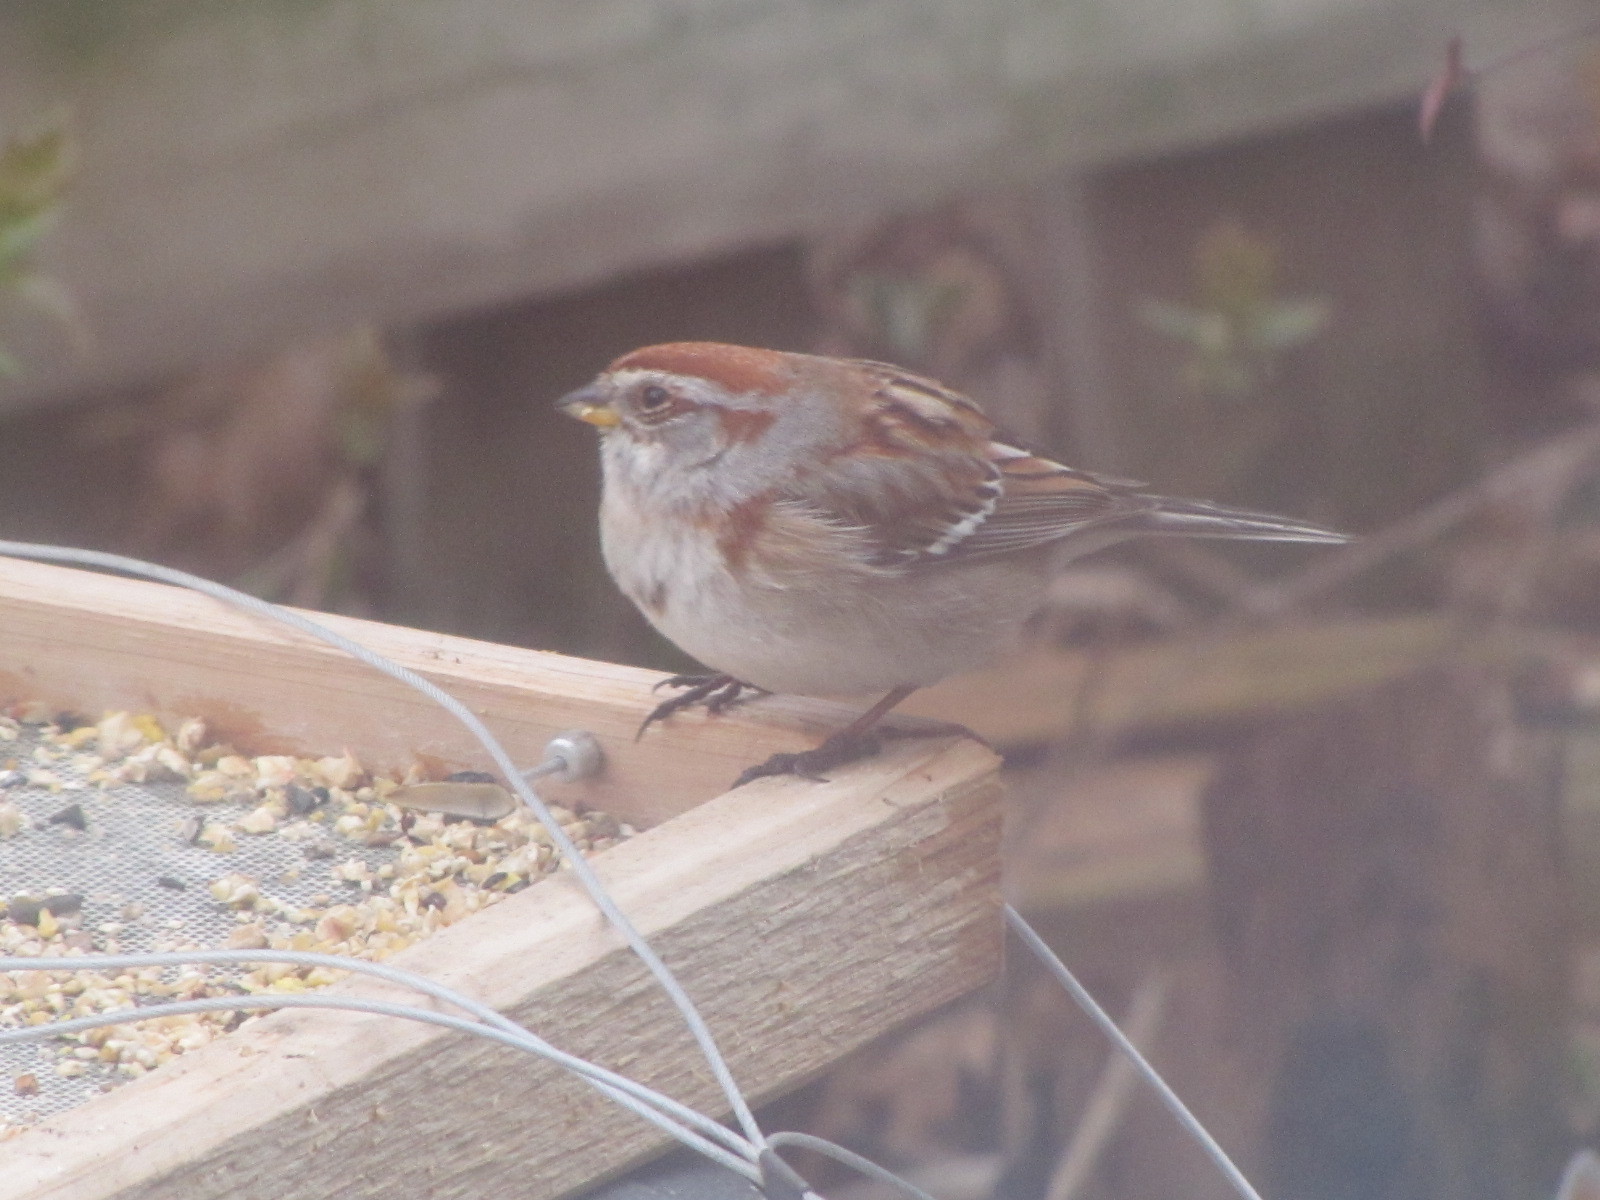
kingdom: Animalia
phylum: Chordata
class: Aves
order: Passeriformes
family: Passerellidae
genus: Spizelloides
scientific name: Spizelloides arborea
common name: American tree sparrow
